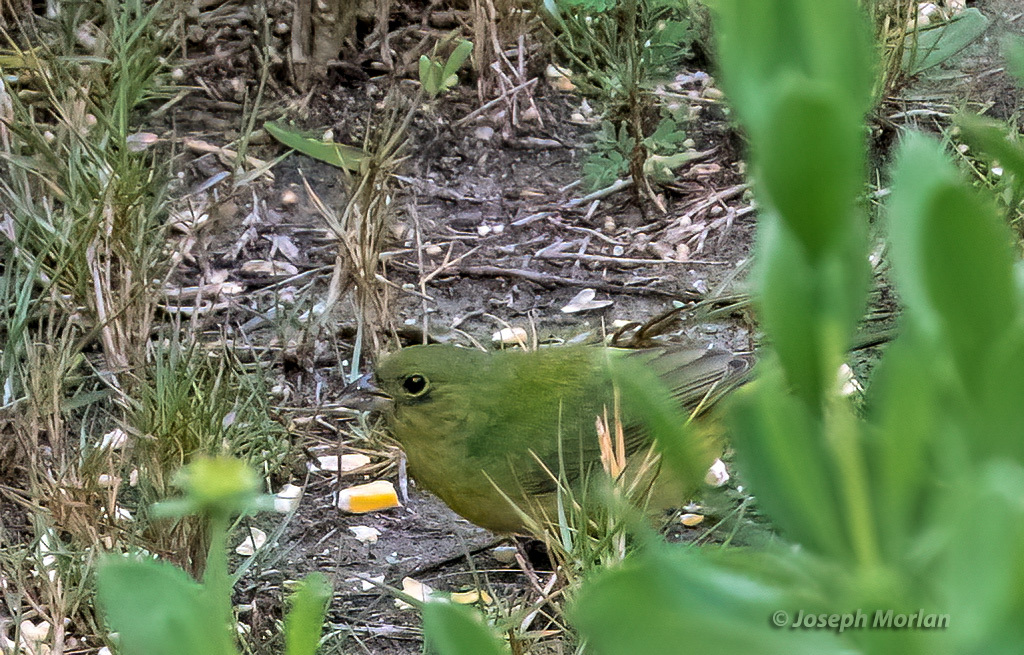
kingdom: Animalia
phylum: Chordata
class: Aves
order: Passeriformes
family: Cardinalidae
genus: Passerina
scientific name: Passerina ciris
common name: Painted bunting
